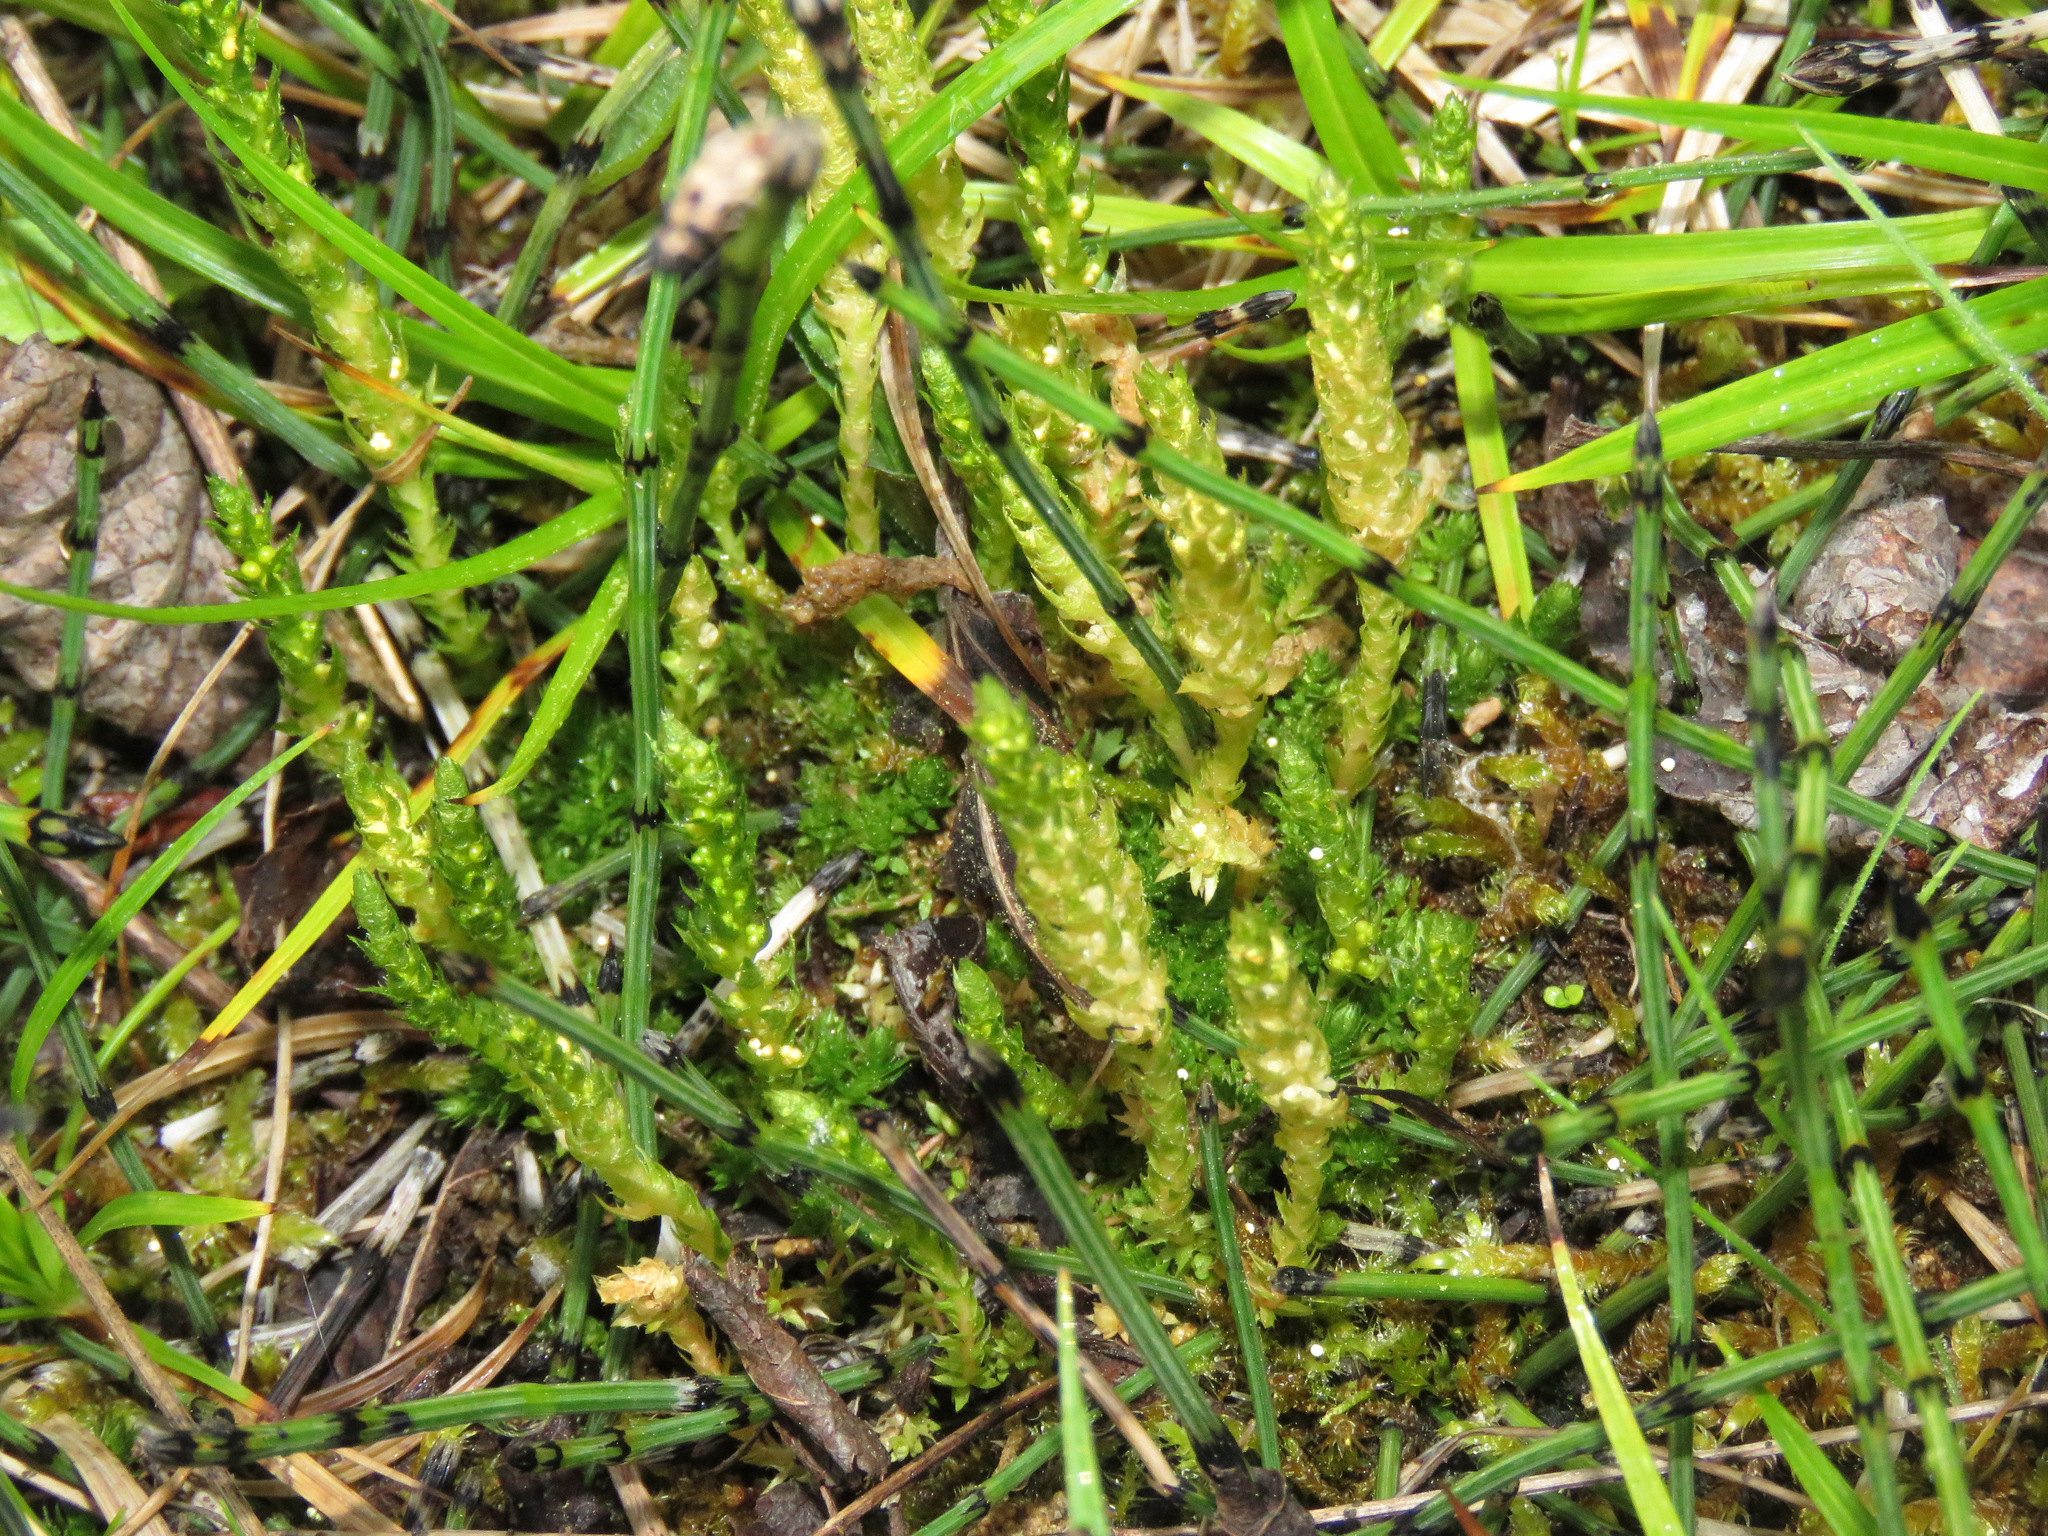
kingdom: Plantae
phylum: Tracheophyta
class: Lycopodiopsida
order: Selaginellales
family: Selaginellaceae
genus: Selaginella
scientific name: Selaginella selaginoides
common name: Prickly mountain-moss
